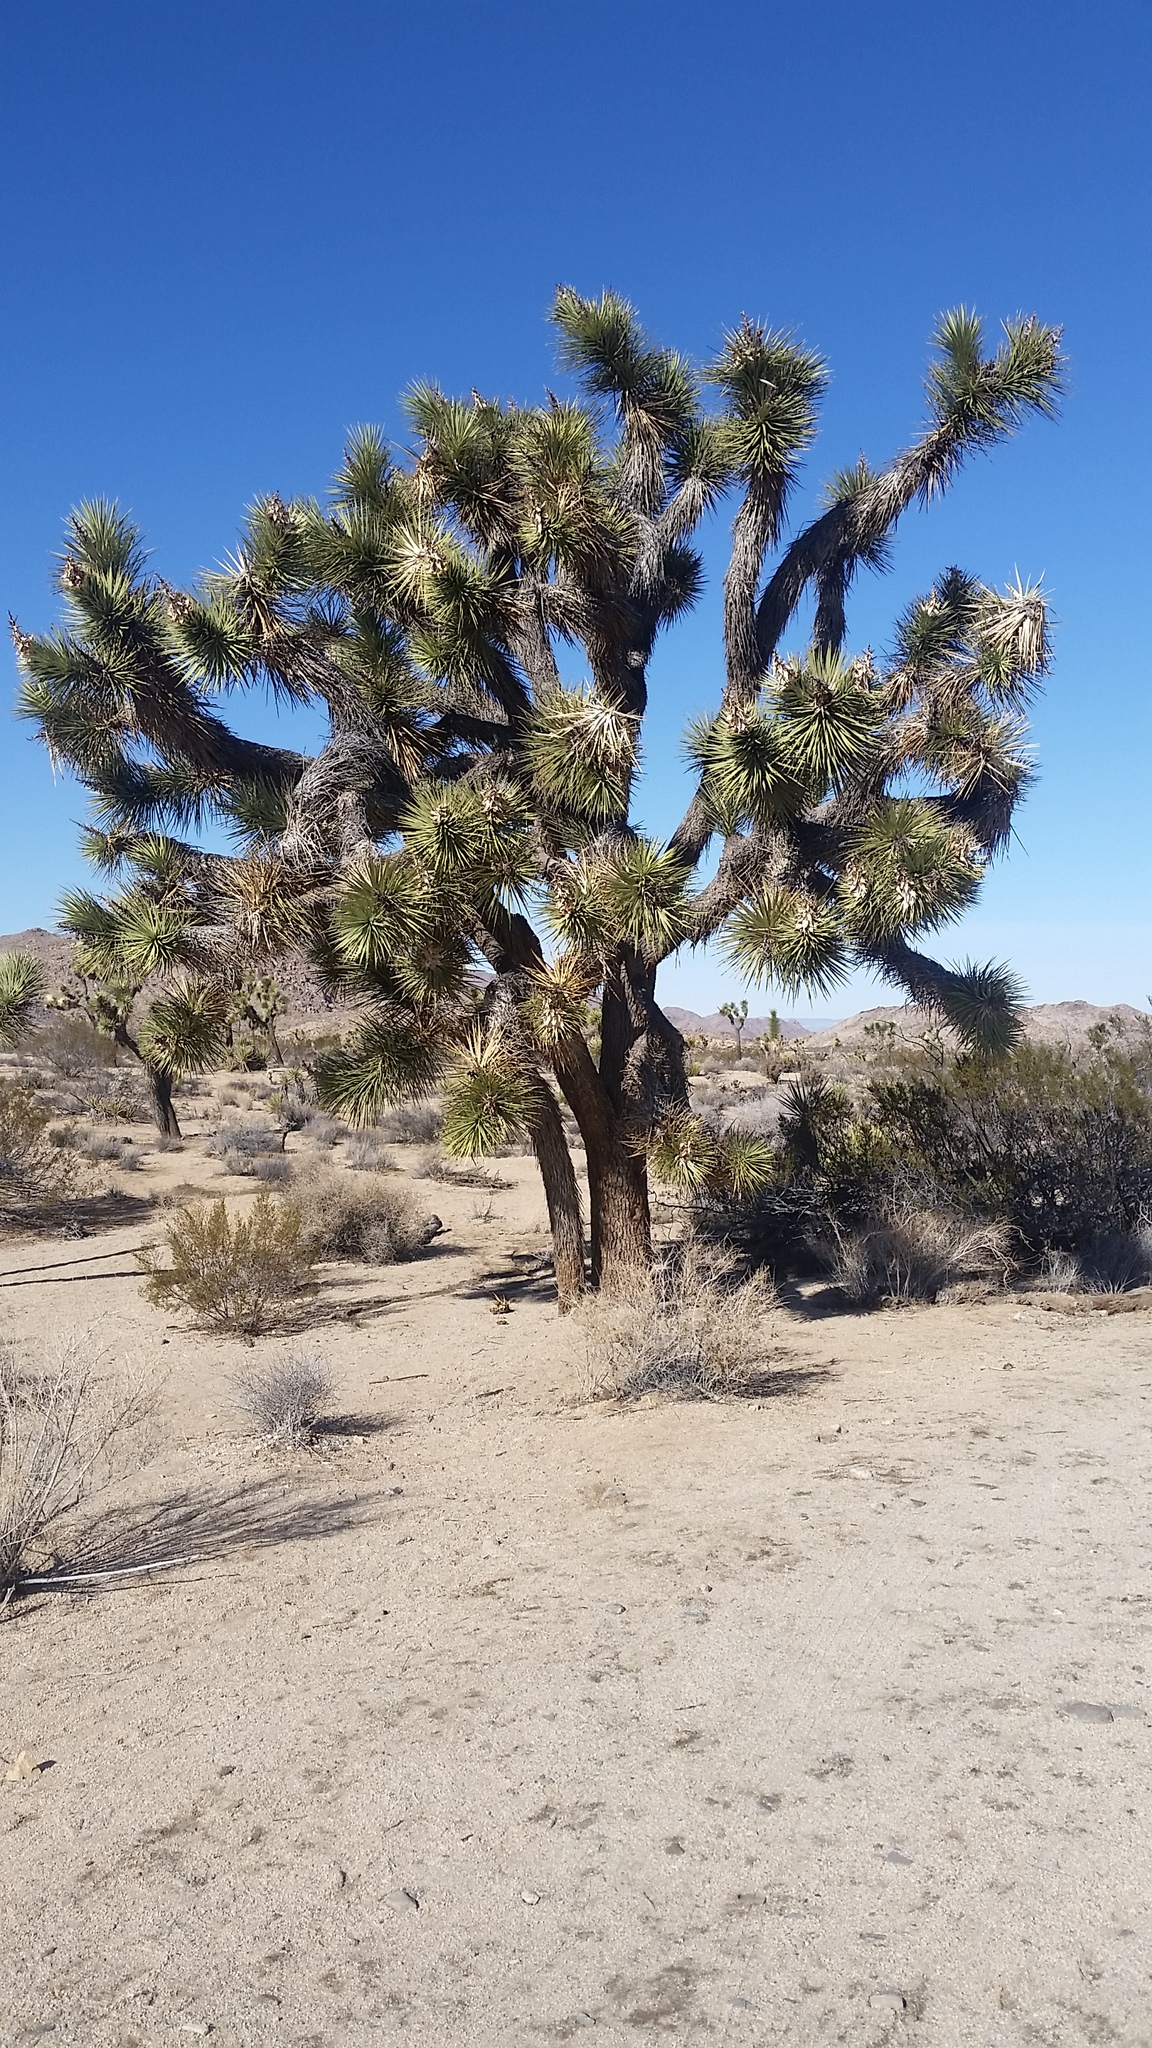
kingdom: Plantae
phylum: Tracheophyta
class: Liliopsida
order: Asparagales
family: Asparagaceae
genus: Yucca
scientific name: Yucca brevifolia
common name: Joshua tree
